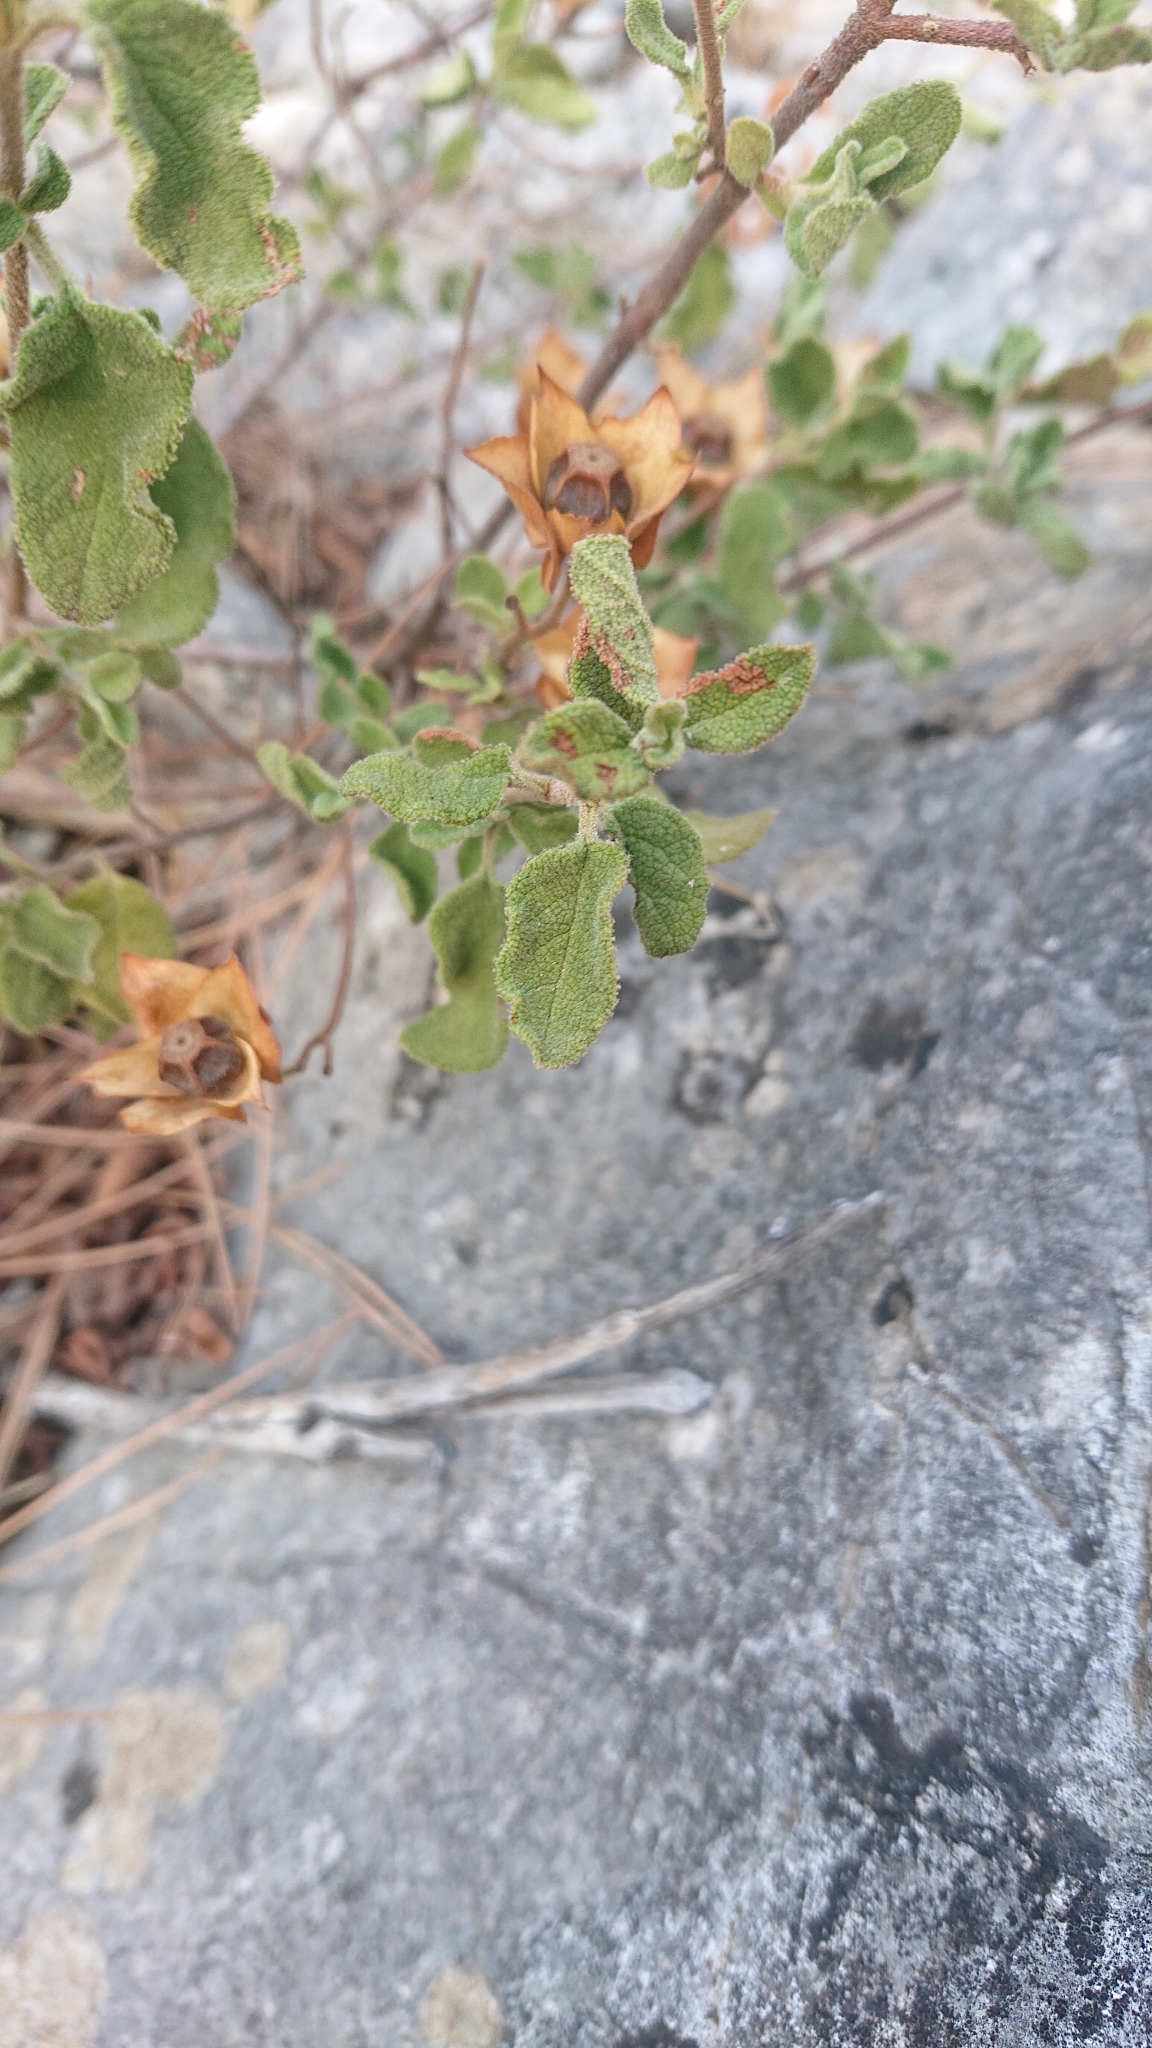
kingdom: Plantae
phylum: Tracheophyta
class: Magnoliopsida
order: Malvales
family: Cistaceae
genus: Cistus
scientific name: Cistus salviifolius
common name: Salvia cistus
